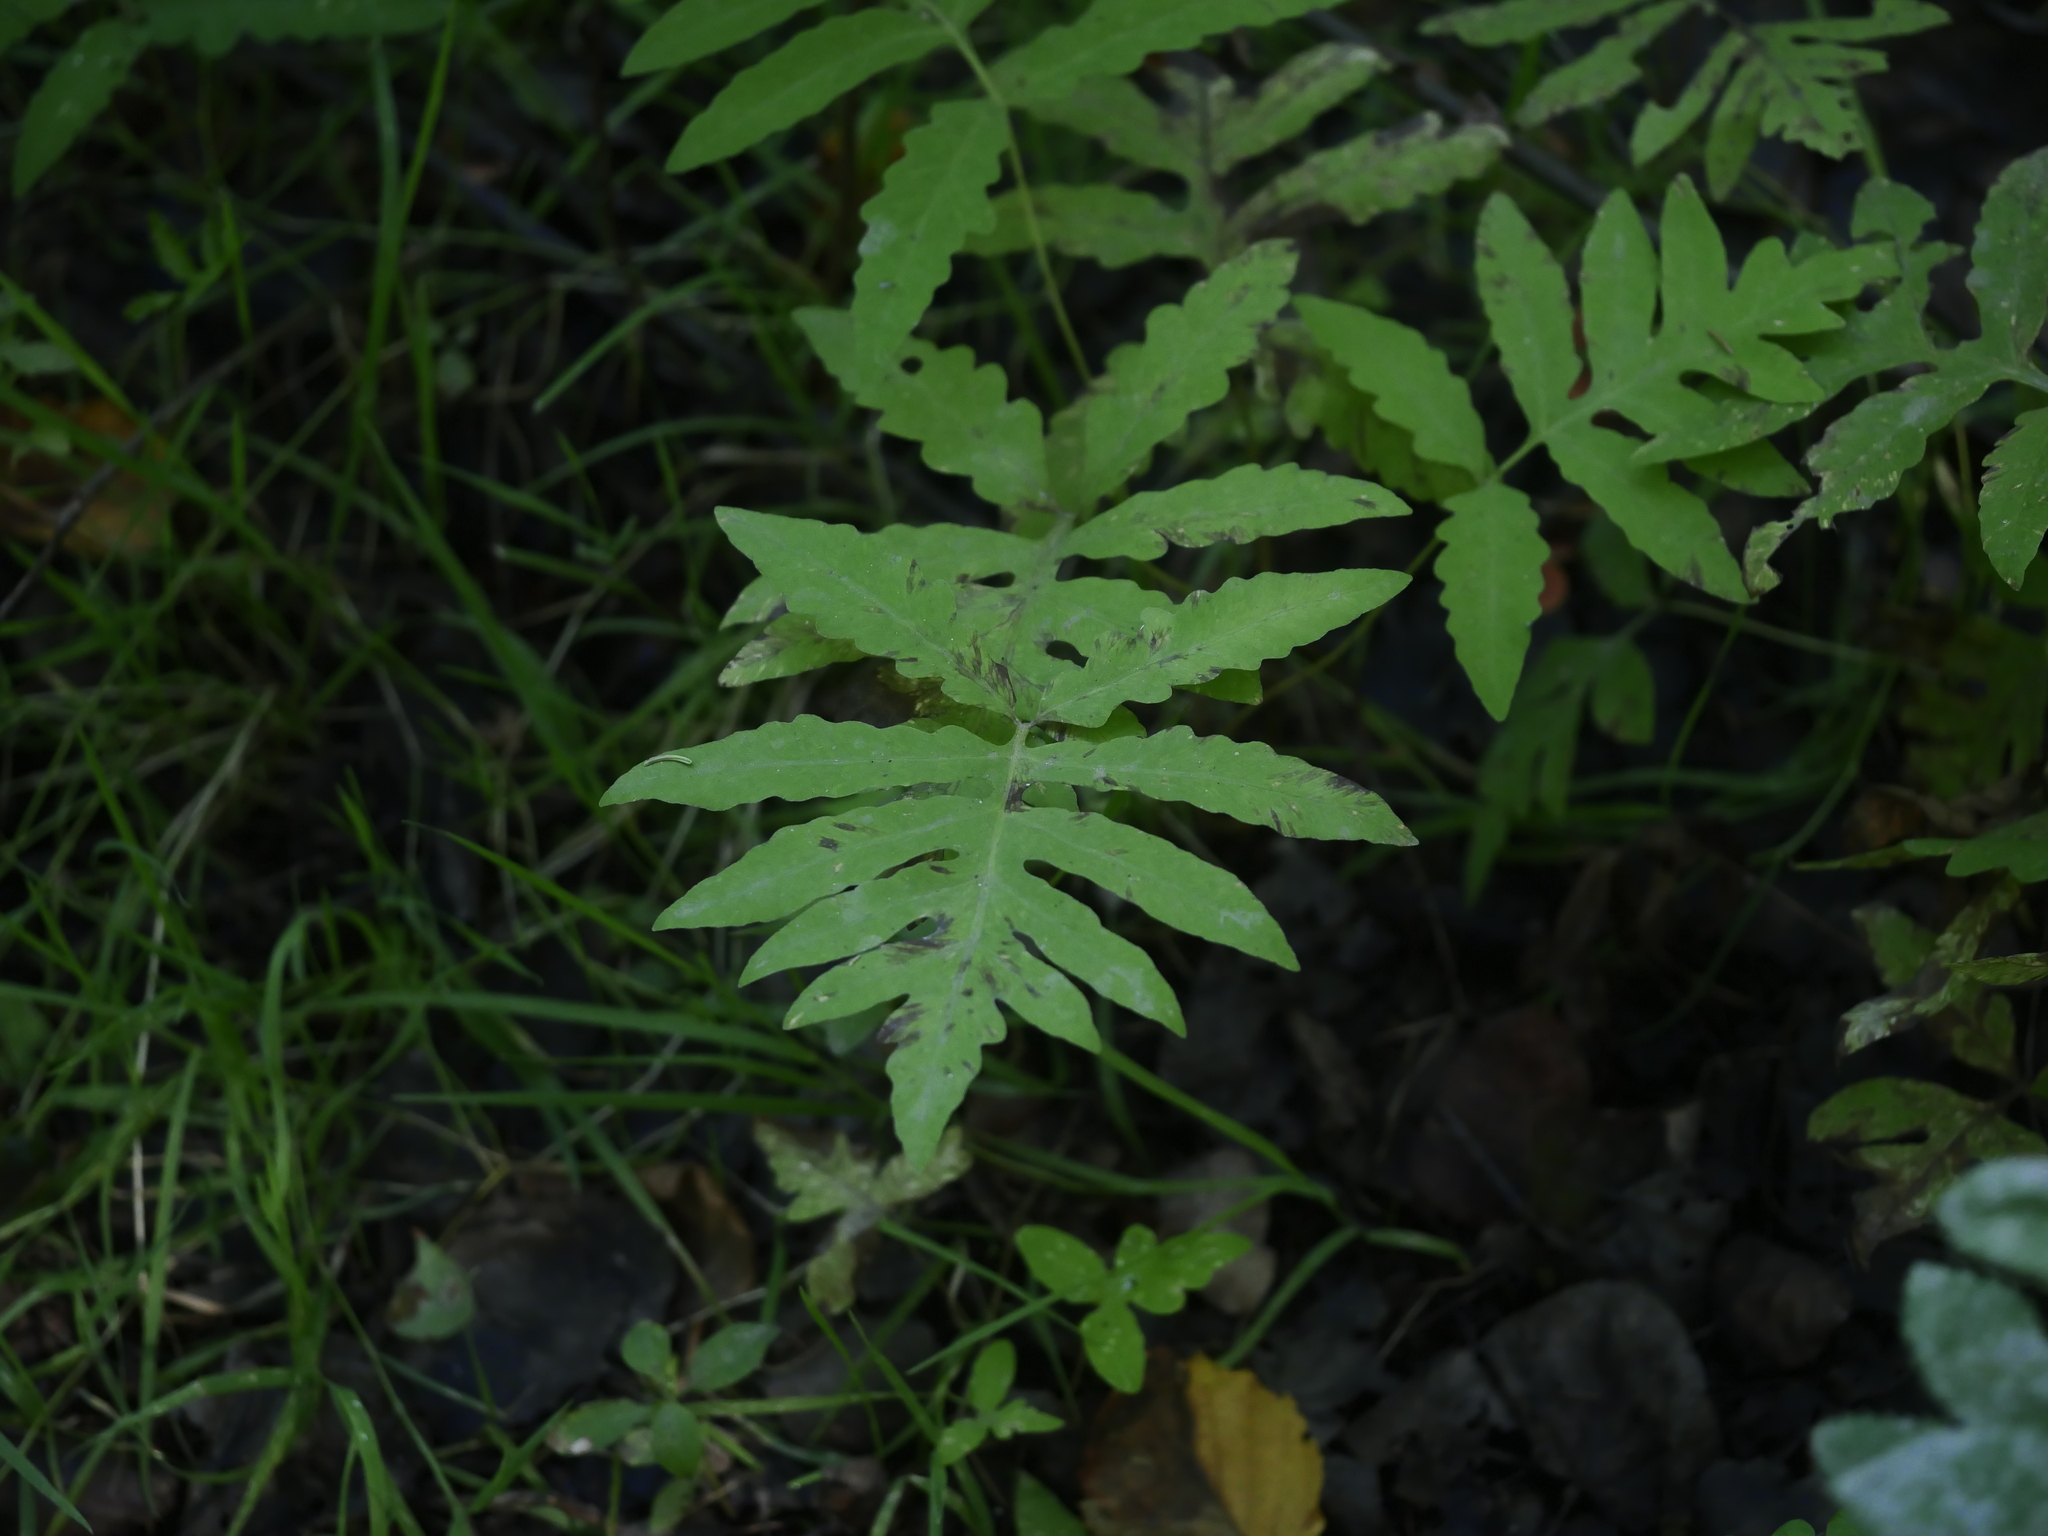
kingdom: Plantae
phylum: Tracheophyta
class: Polypodiopsida
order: Polypodiales
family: Onocleaceae
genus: Onoclea
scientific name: Onoclea sensibilis
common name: Sensitive fern
